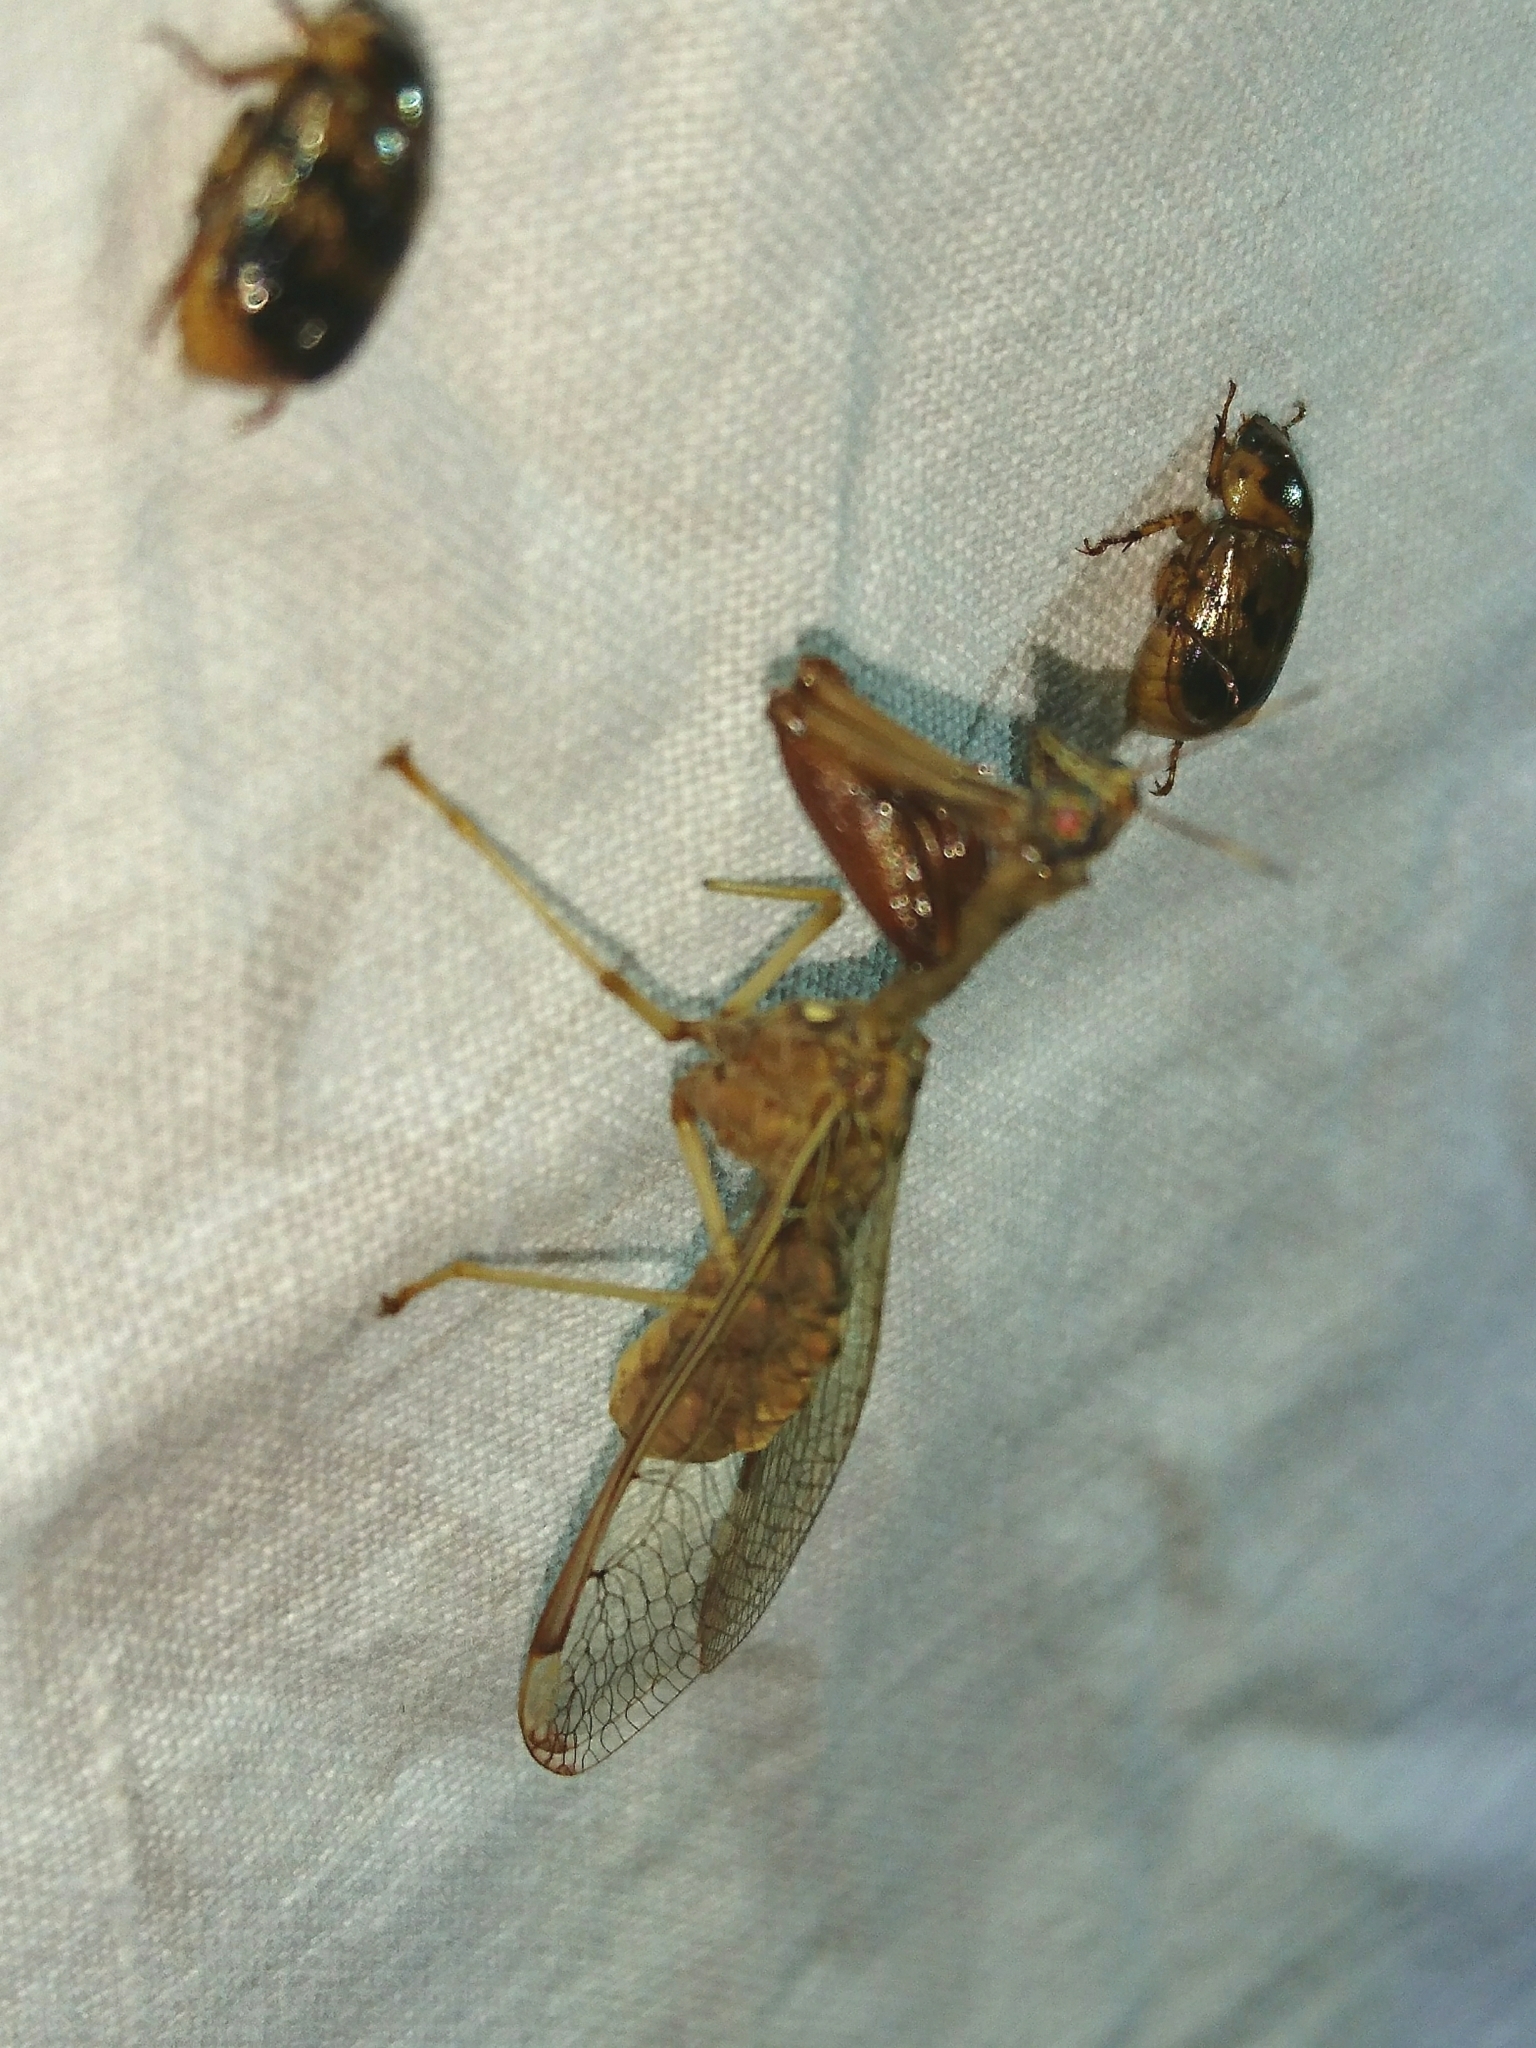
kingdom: Animalia
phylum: Arthropoda
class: Insecta
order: Neuroptera
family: Mantispidae
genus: Dicromantispa
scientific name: Dicromantispa interrupta
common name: Four-spotted mantidfly
